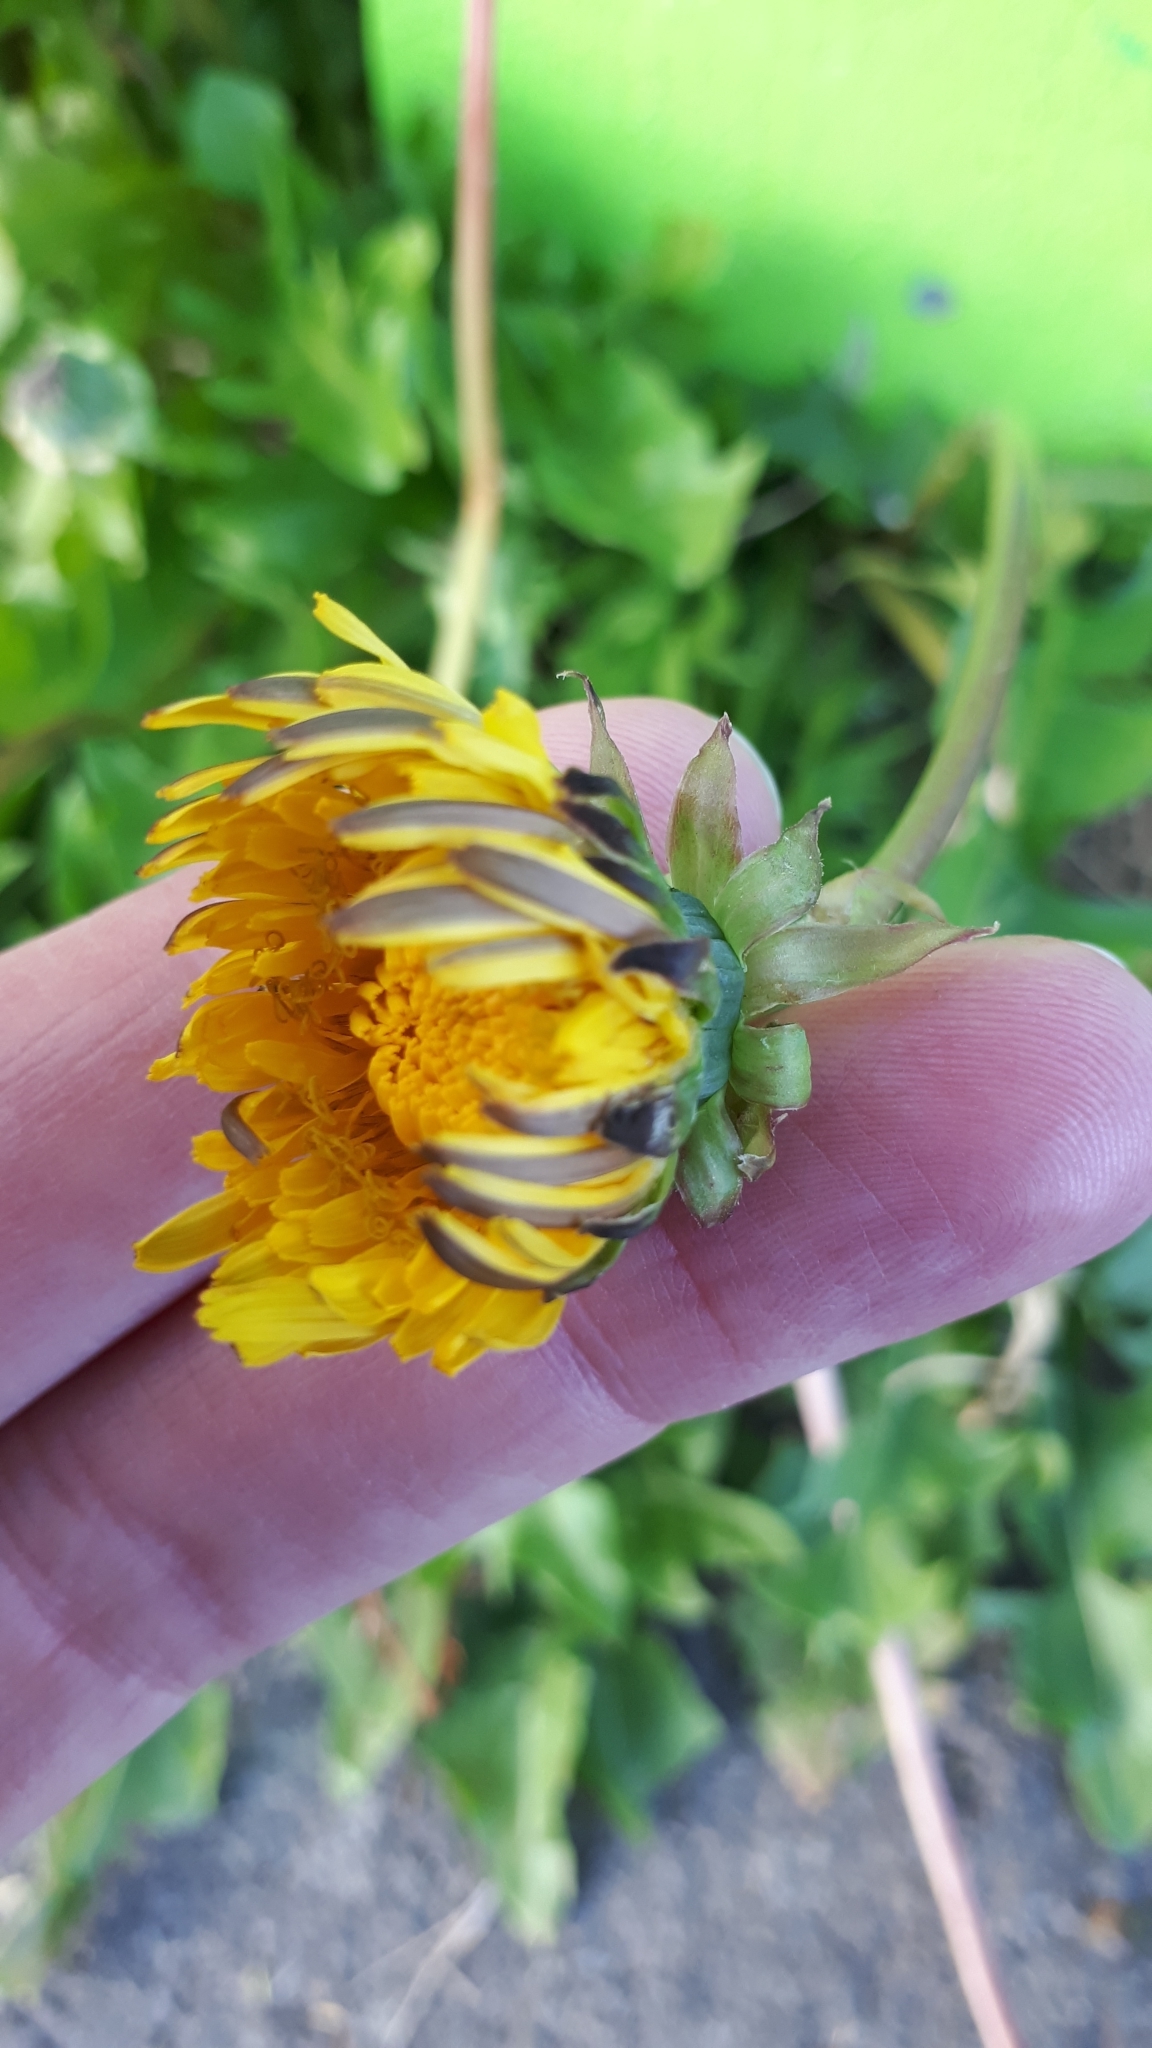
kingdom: Plantae
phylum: Tracheophyta
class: Magnoliopsida
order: Asterales
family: Asteraceae
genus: Taraxacum
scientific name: Taraxacum officinale
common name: Common dandelion
